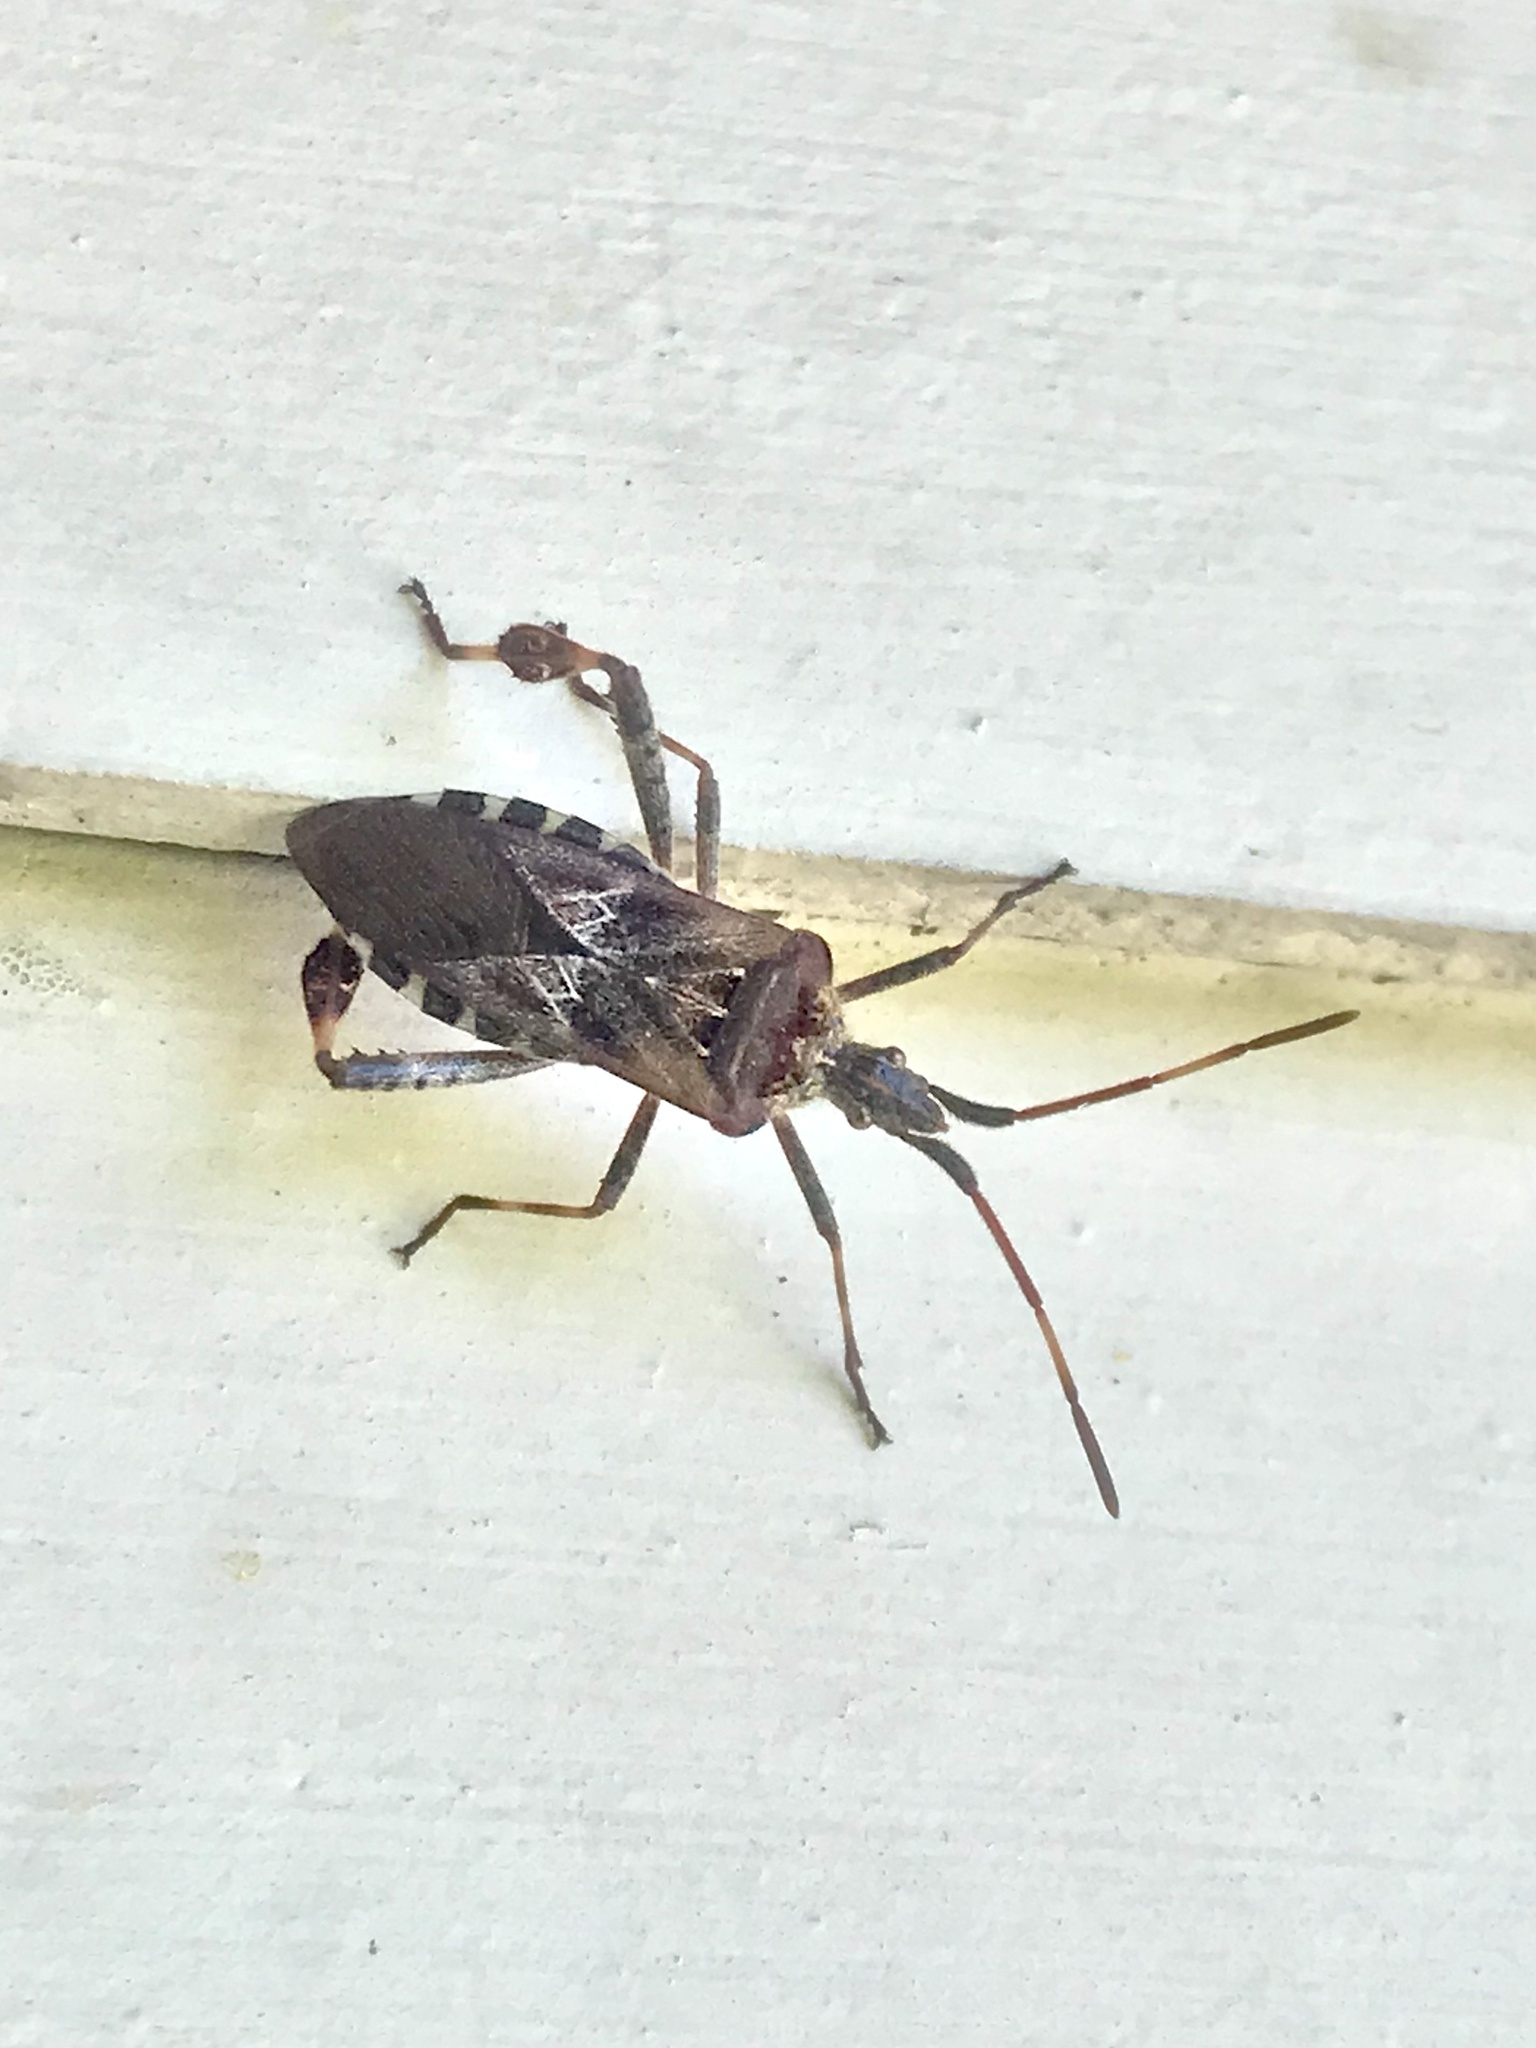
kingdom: Animalia
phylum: Arthropoda
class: Insecta
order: Hemiptera
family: Coreidae
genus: Leptoglossus
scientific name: Leptoglossus occidentalis
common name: Western conifer-seed bug
